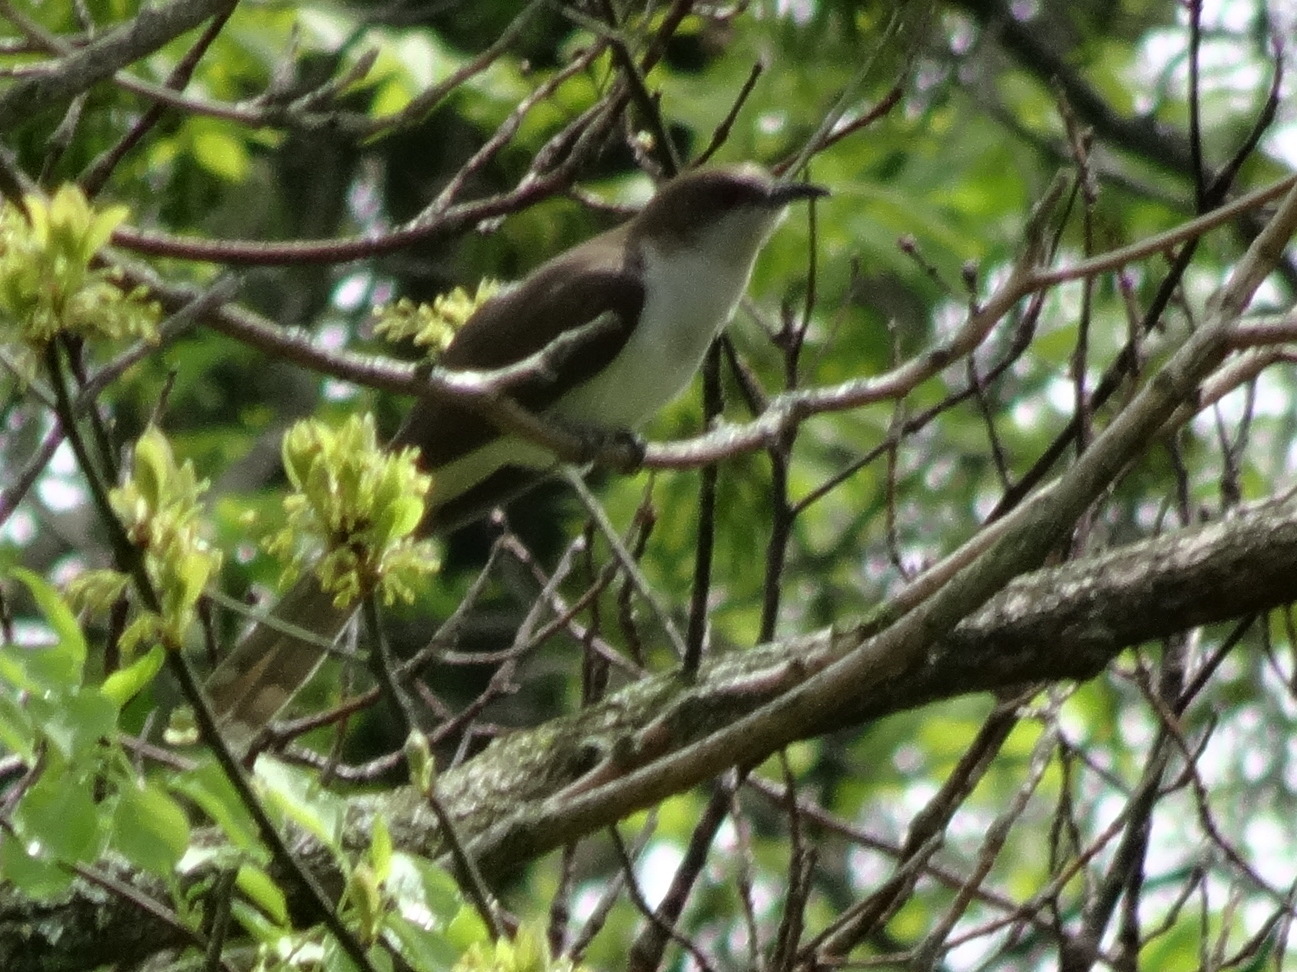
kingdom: Animalia
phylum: Chordata
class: Aves
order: Cuculiformes
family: Cuculidae
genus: Coccyzus
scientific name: Coccyzus erythropthalmus
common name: Black-billed cuckoo
